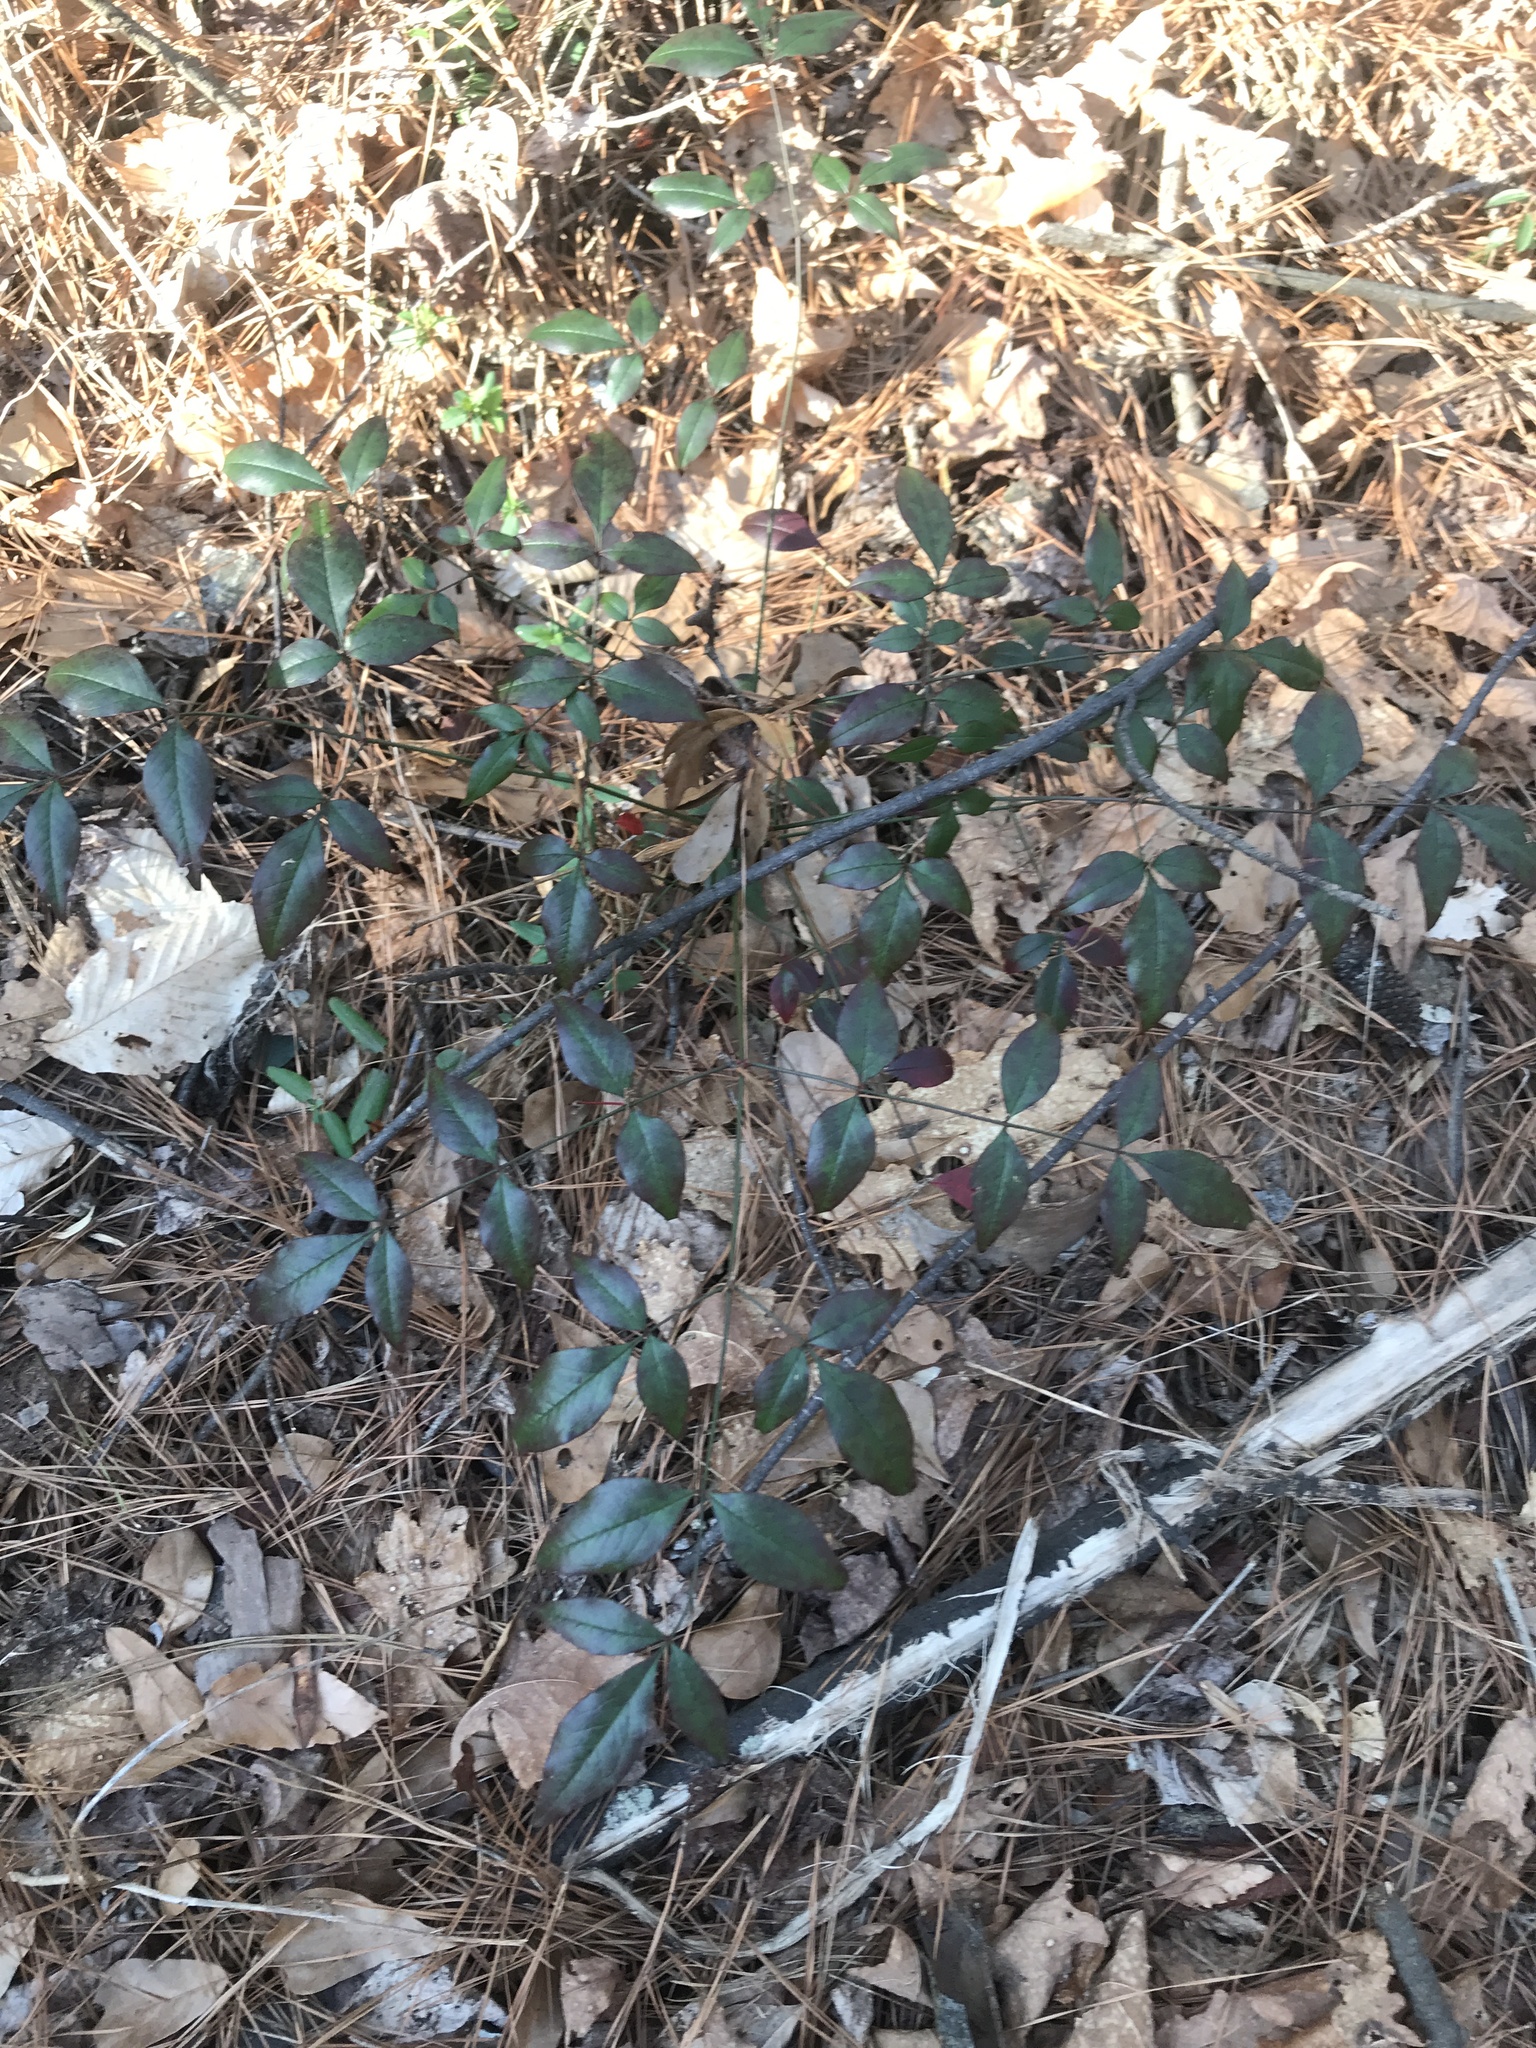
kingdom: Plantae
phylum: Tracheophyta
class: Magnoliopsida
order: Ranunculales
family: Berberidaceae
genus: Nandina
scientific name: Nandina domestica
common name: Sacred bamboo
